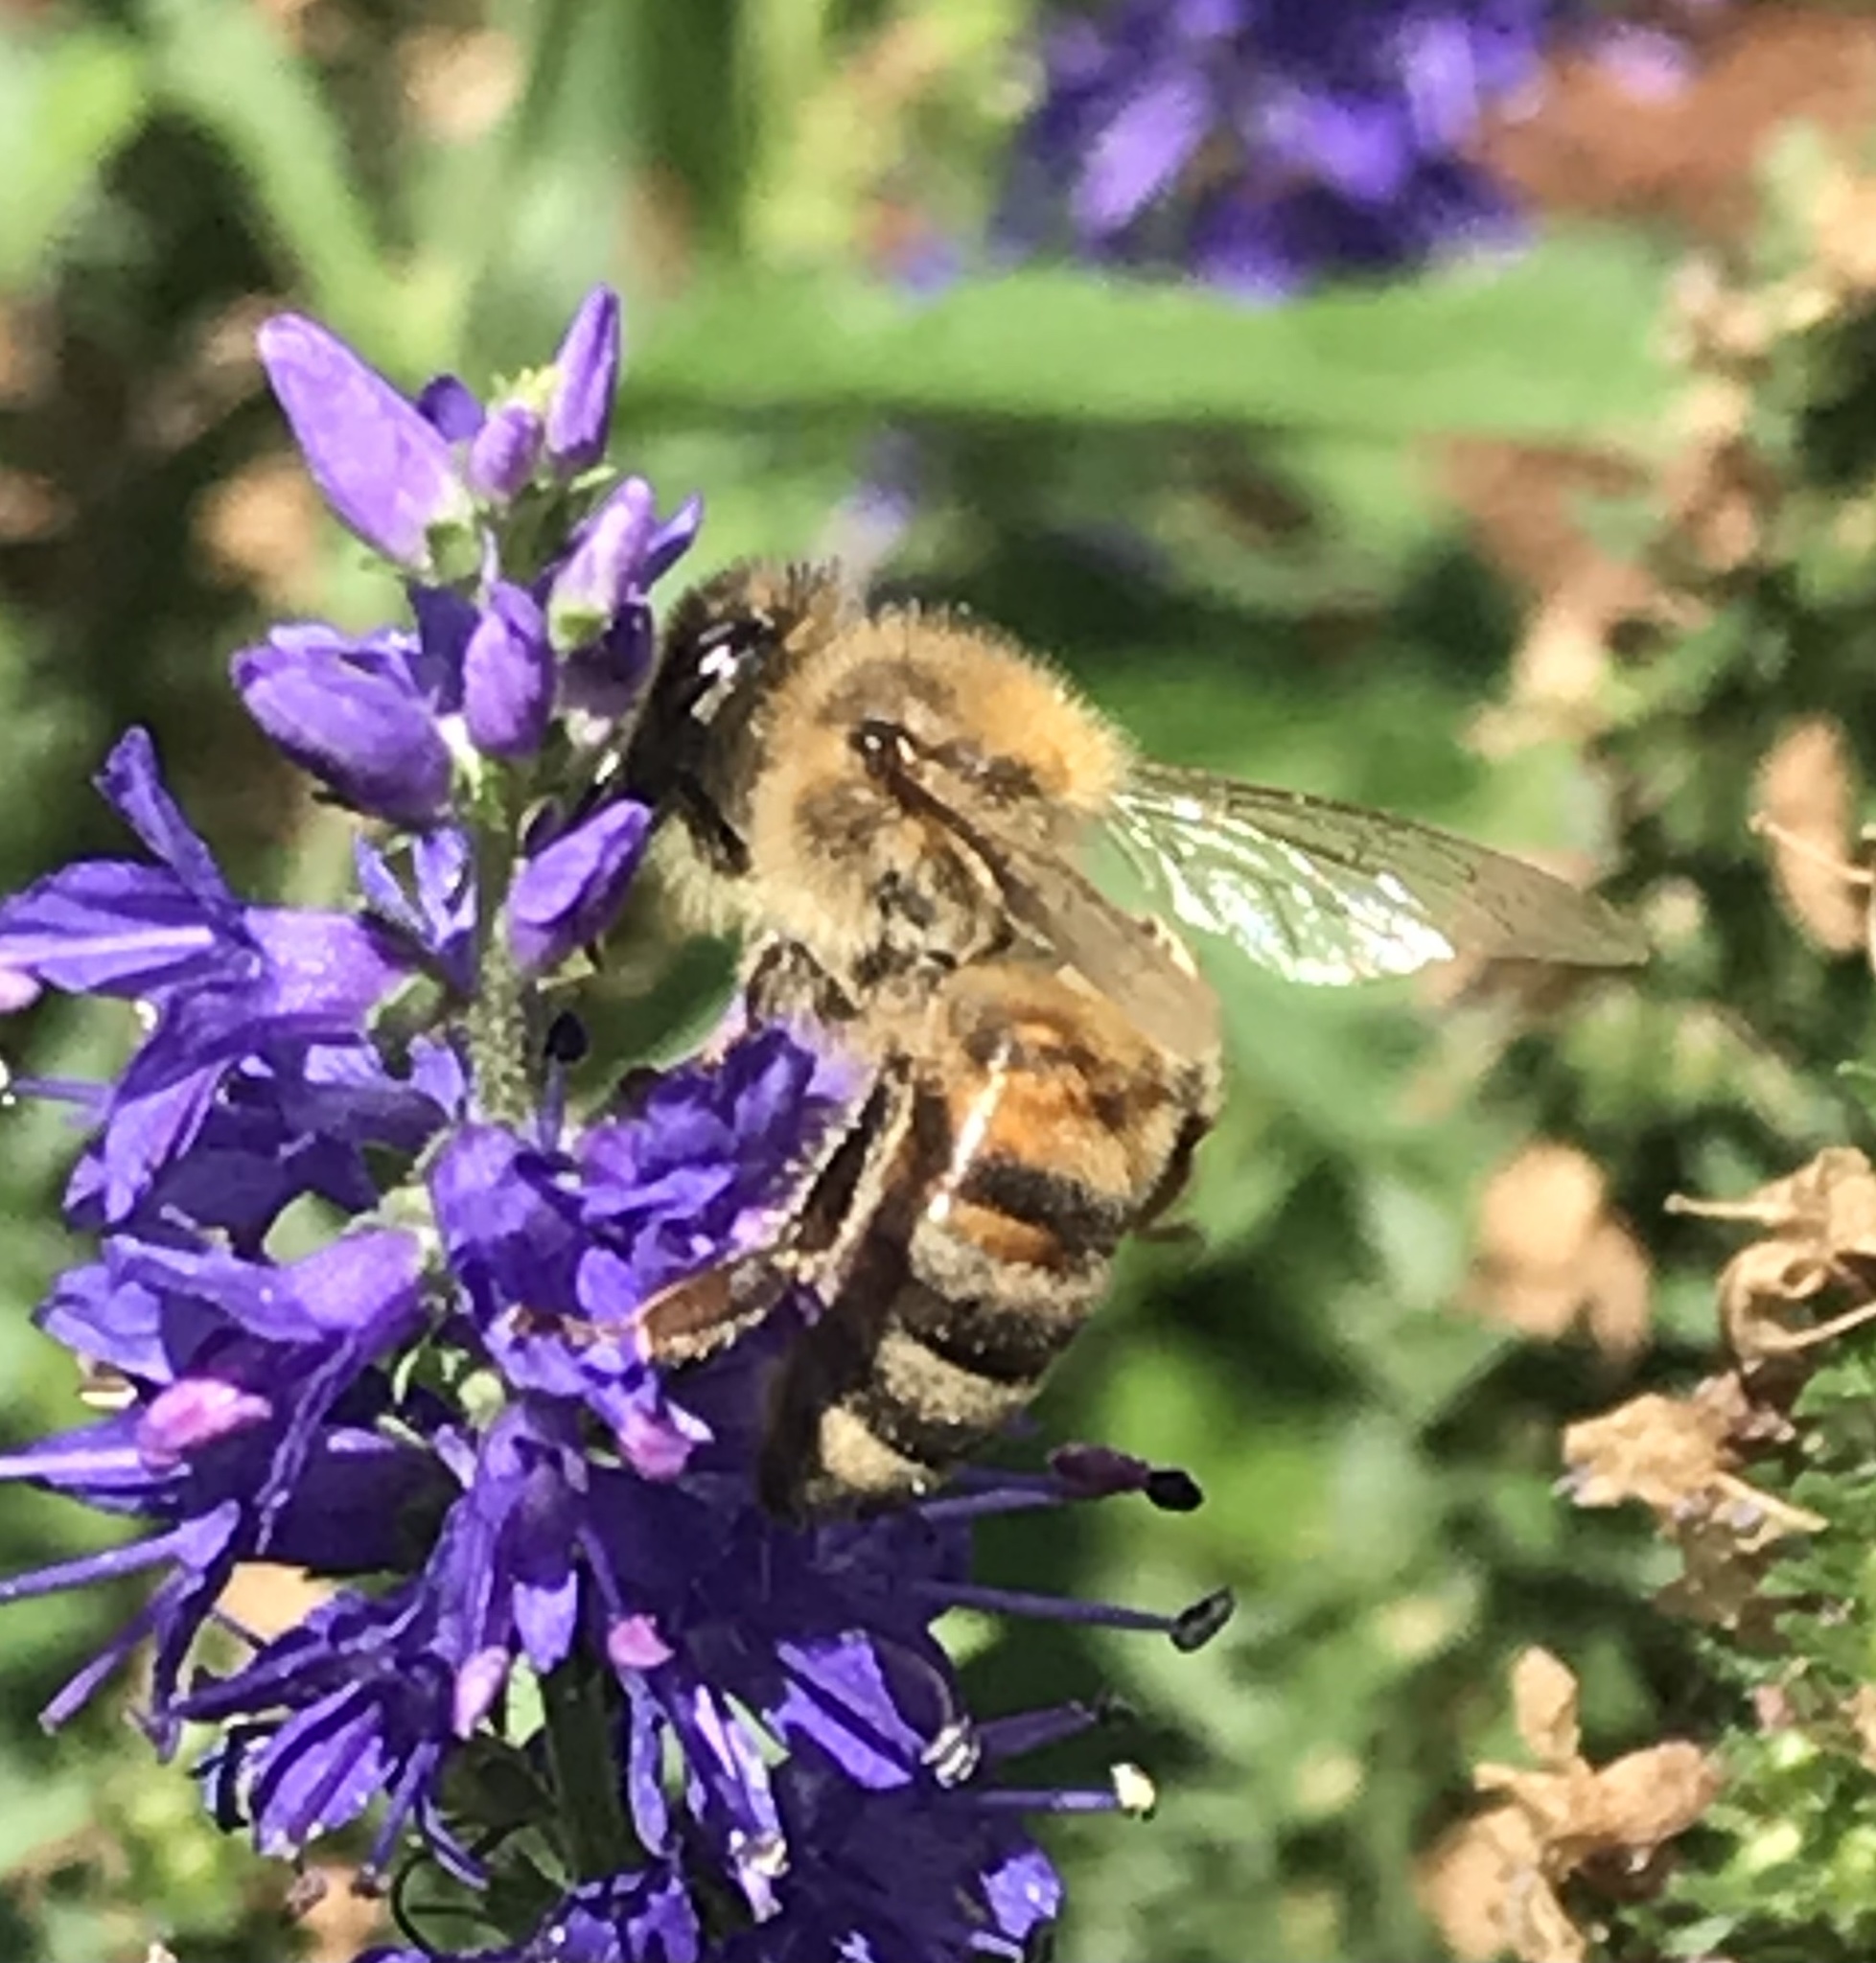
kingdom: Animalia
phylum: Arthropoda
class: Insecta
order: Hymenoptera
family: Apidae
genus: Apis
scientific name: Apis mellifera
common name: Honey bee
